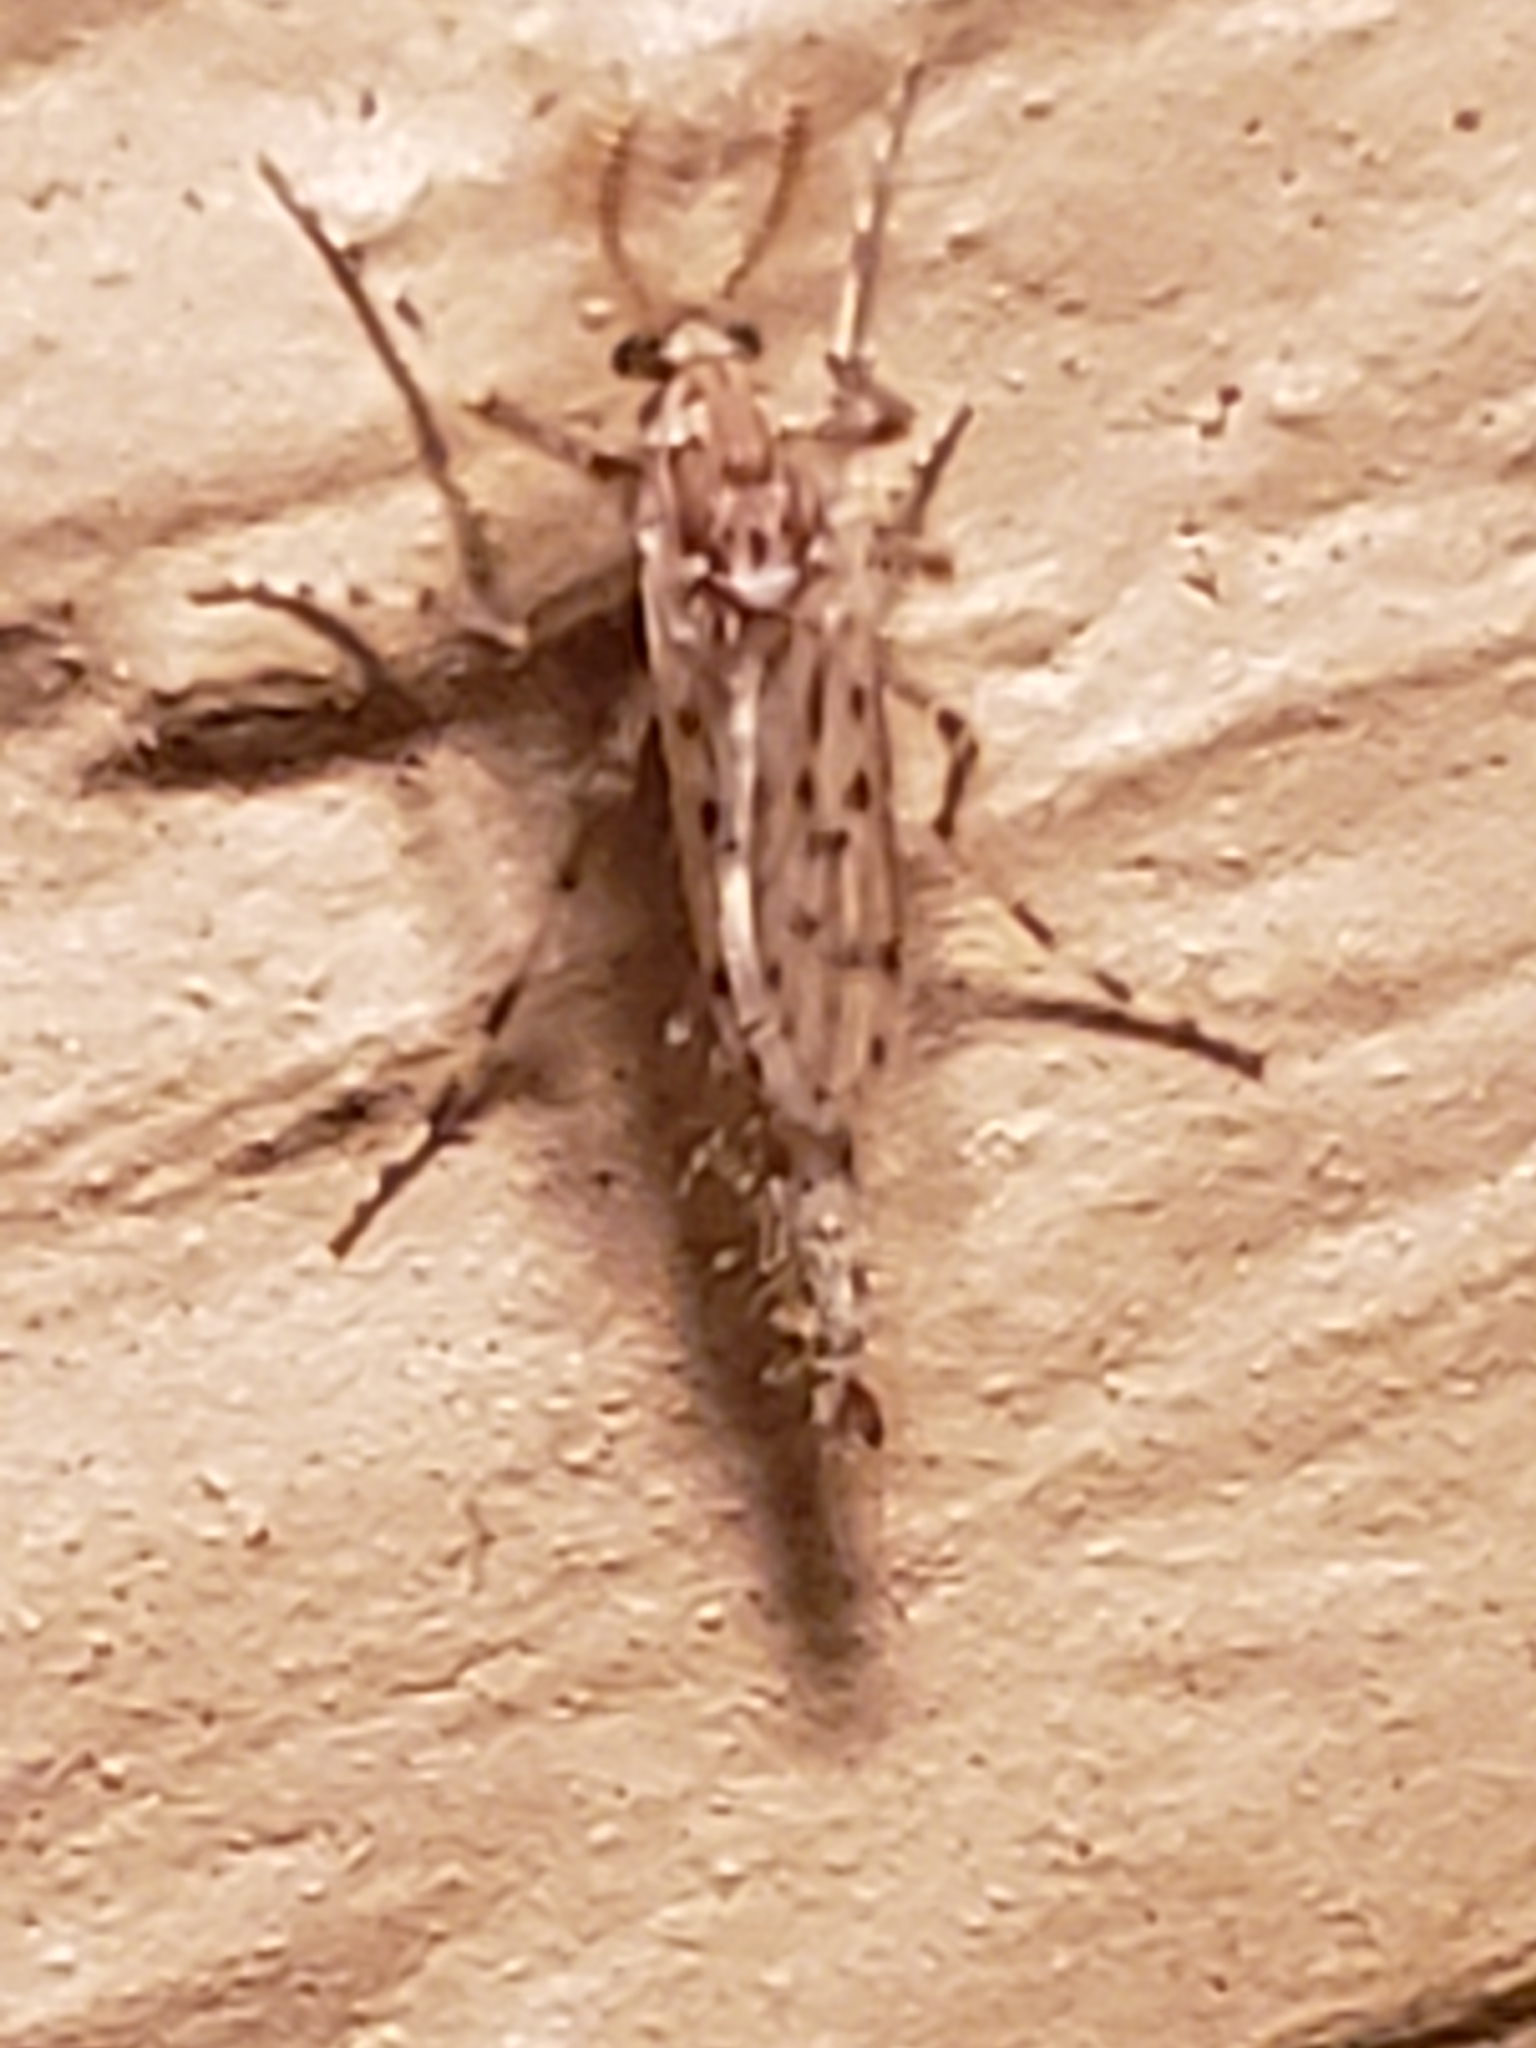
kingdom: Animalia
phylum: Arthropoda
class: Insecta
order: Diptera
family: Chaoboridae
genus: Chaoborus
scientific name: Chaoborus punctipennis
